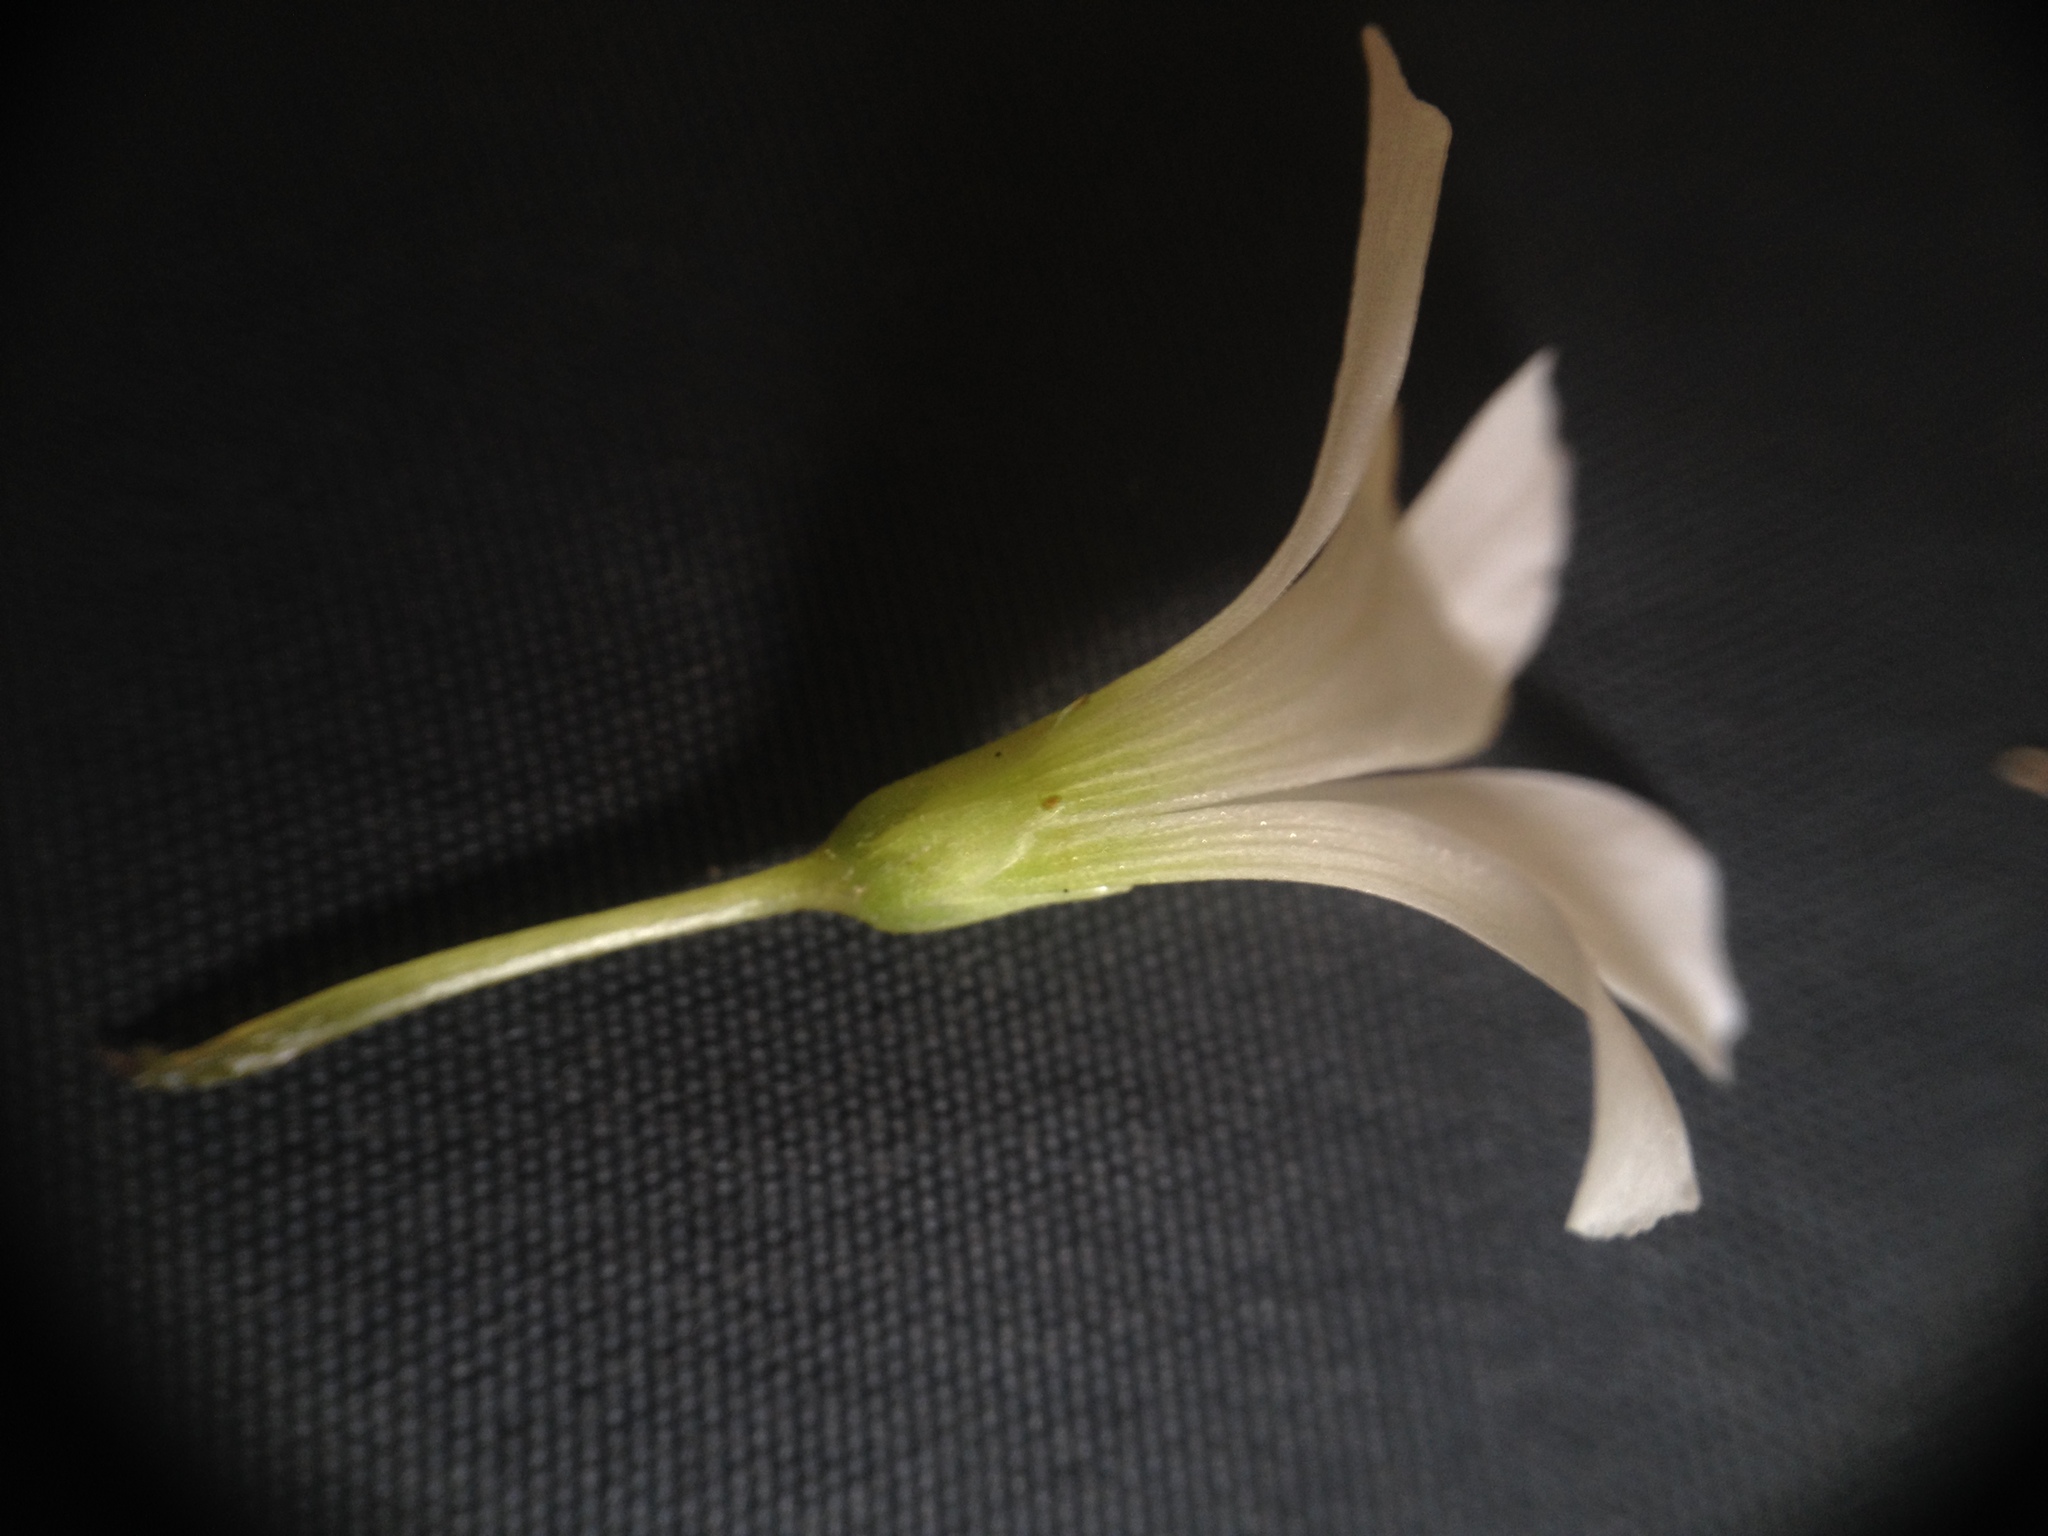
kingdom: Plantae
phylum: Tracheophyta
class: Magnoliopsida
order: Oxalidales
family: Oxalidaceae
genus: Oxalis
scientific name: Oxalis triangularis
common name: Wood sorrel
